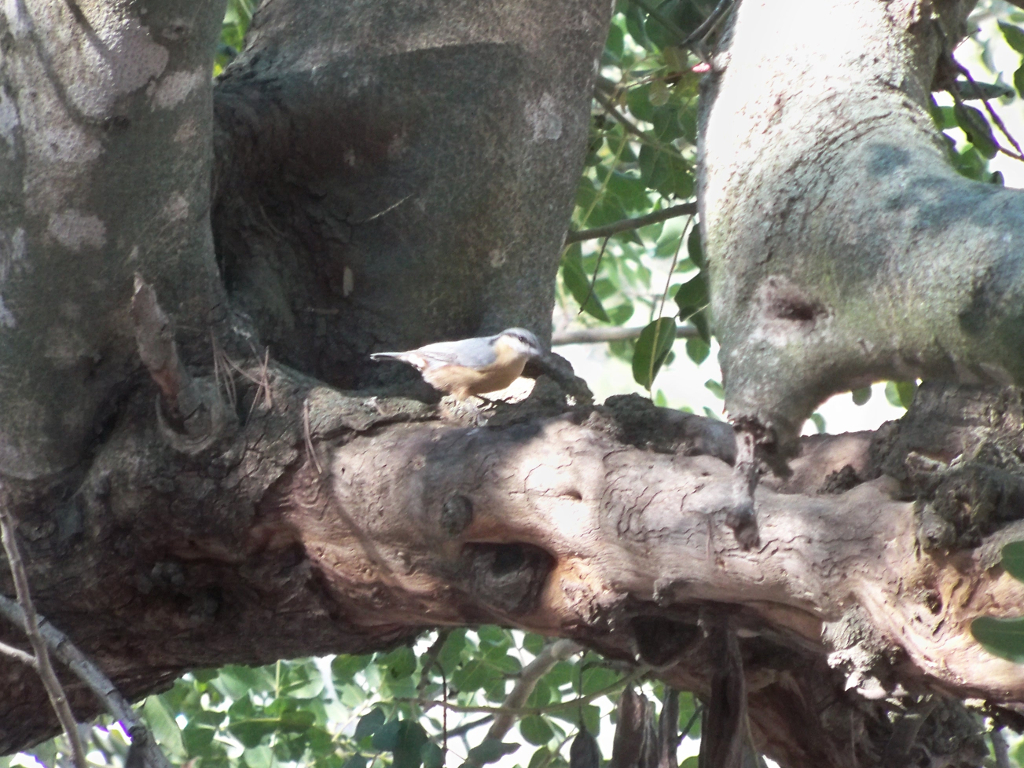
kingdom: Animalia
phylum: Chordata
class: Aves
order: Passeriformes
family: Sittidae
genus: Sitta
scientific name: Sitta europaea
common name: Eurasian nuthatch
